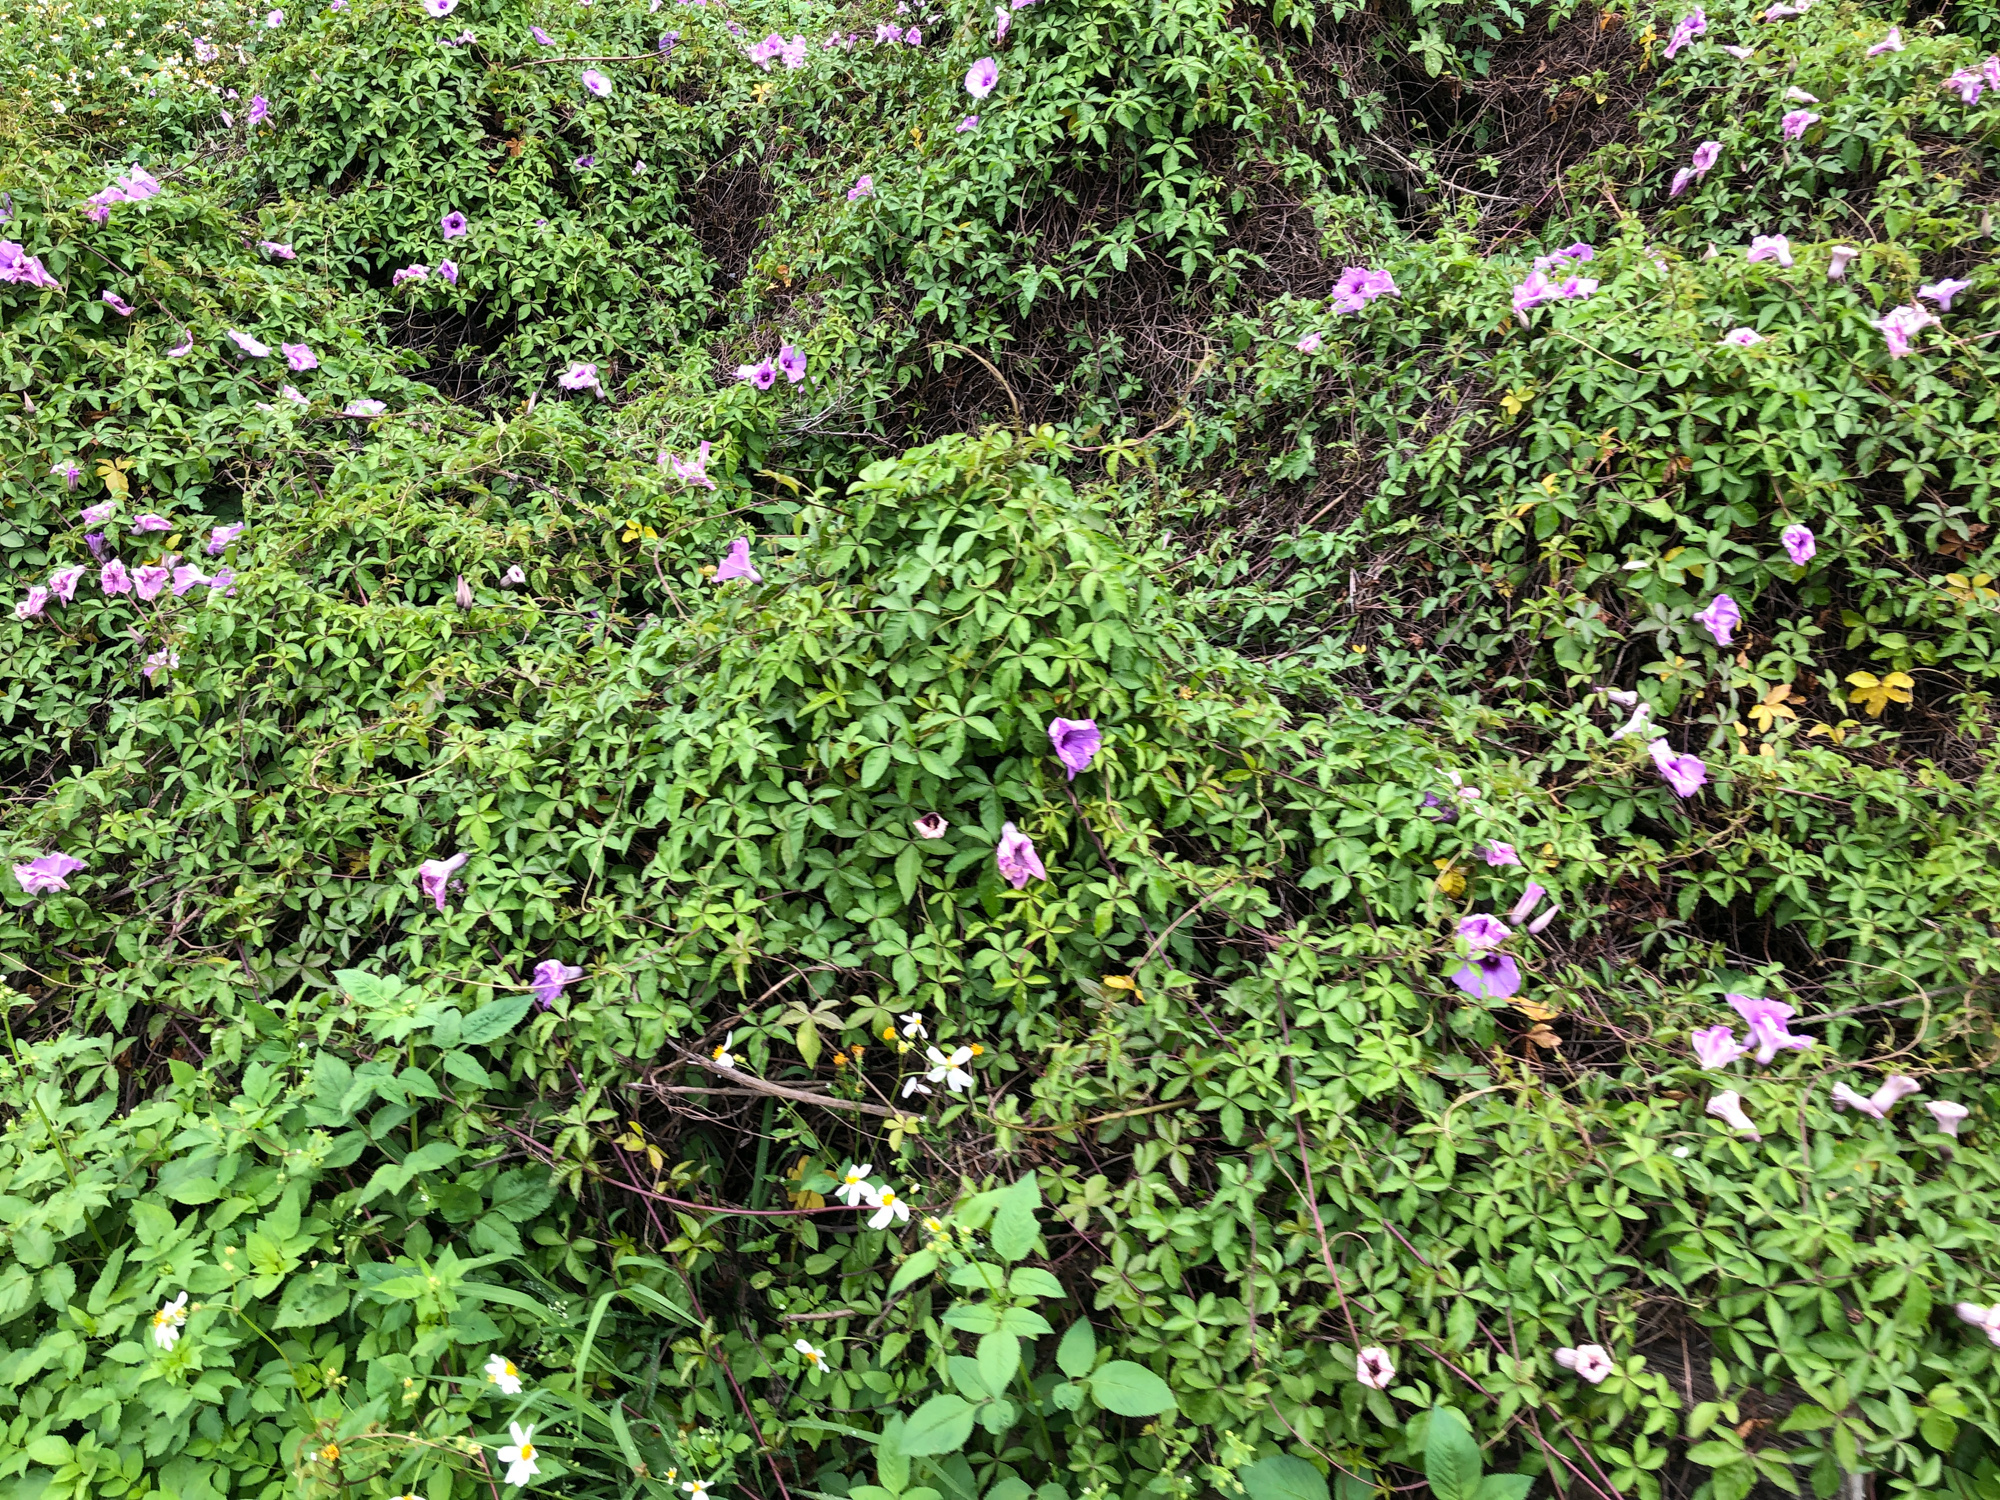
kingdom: Plantae
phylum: Tracheophyta
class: Magnoliopsida
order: Solanales
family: Convolvulaceae
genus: Ipomoea
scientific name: Ipomoea cairica
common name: Mile a minute vine
